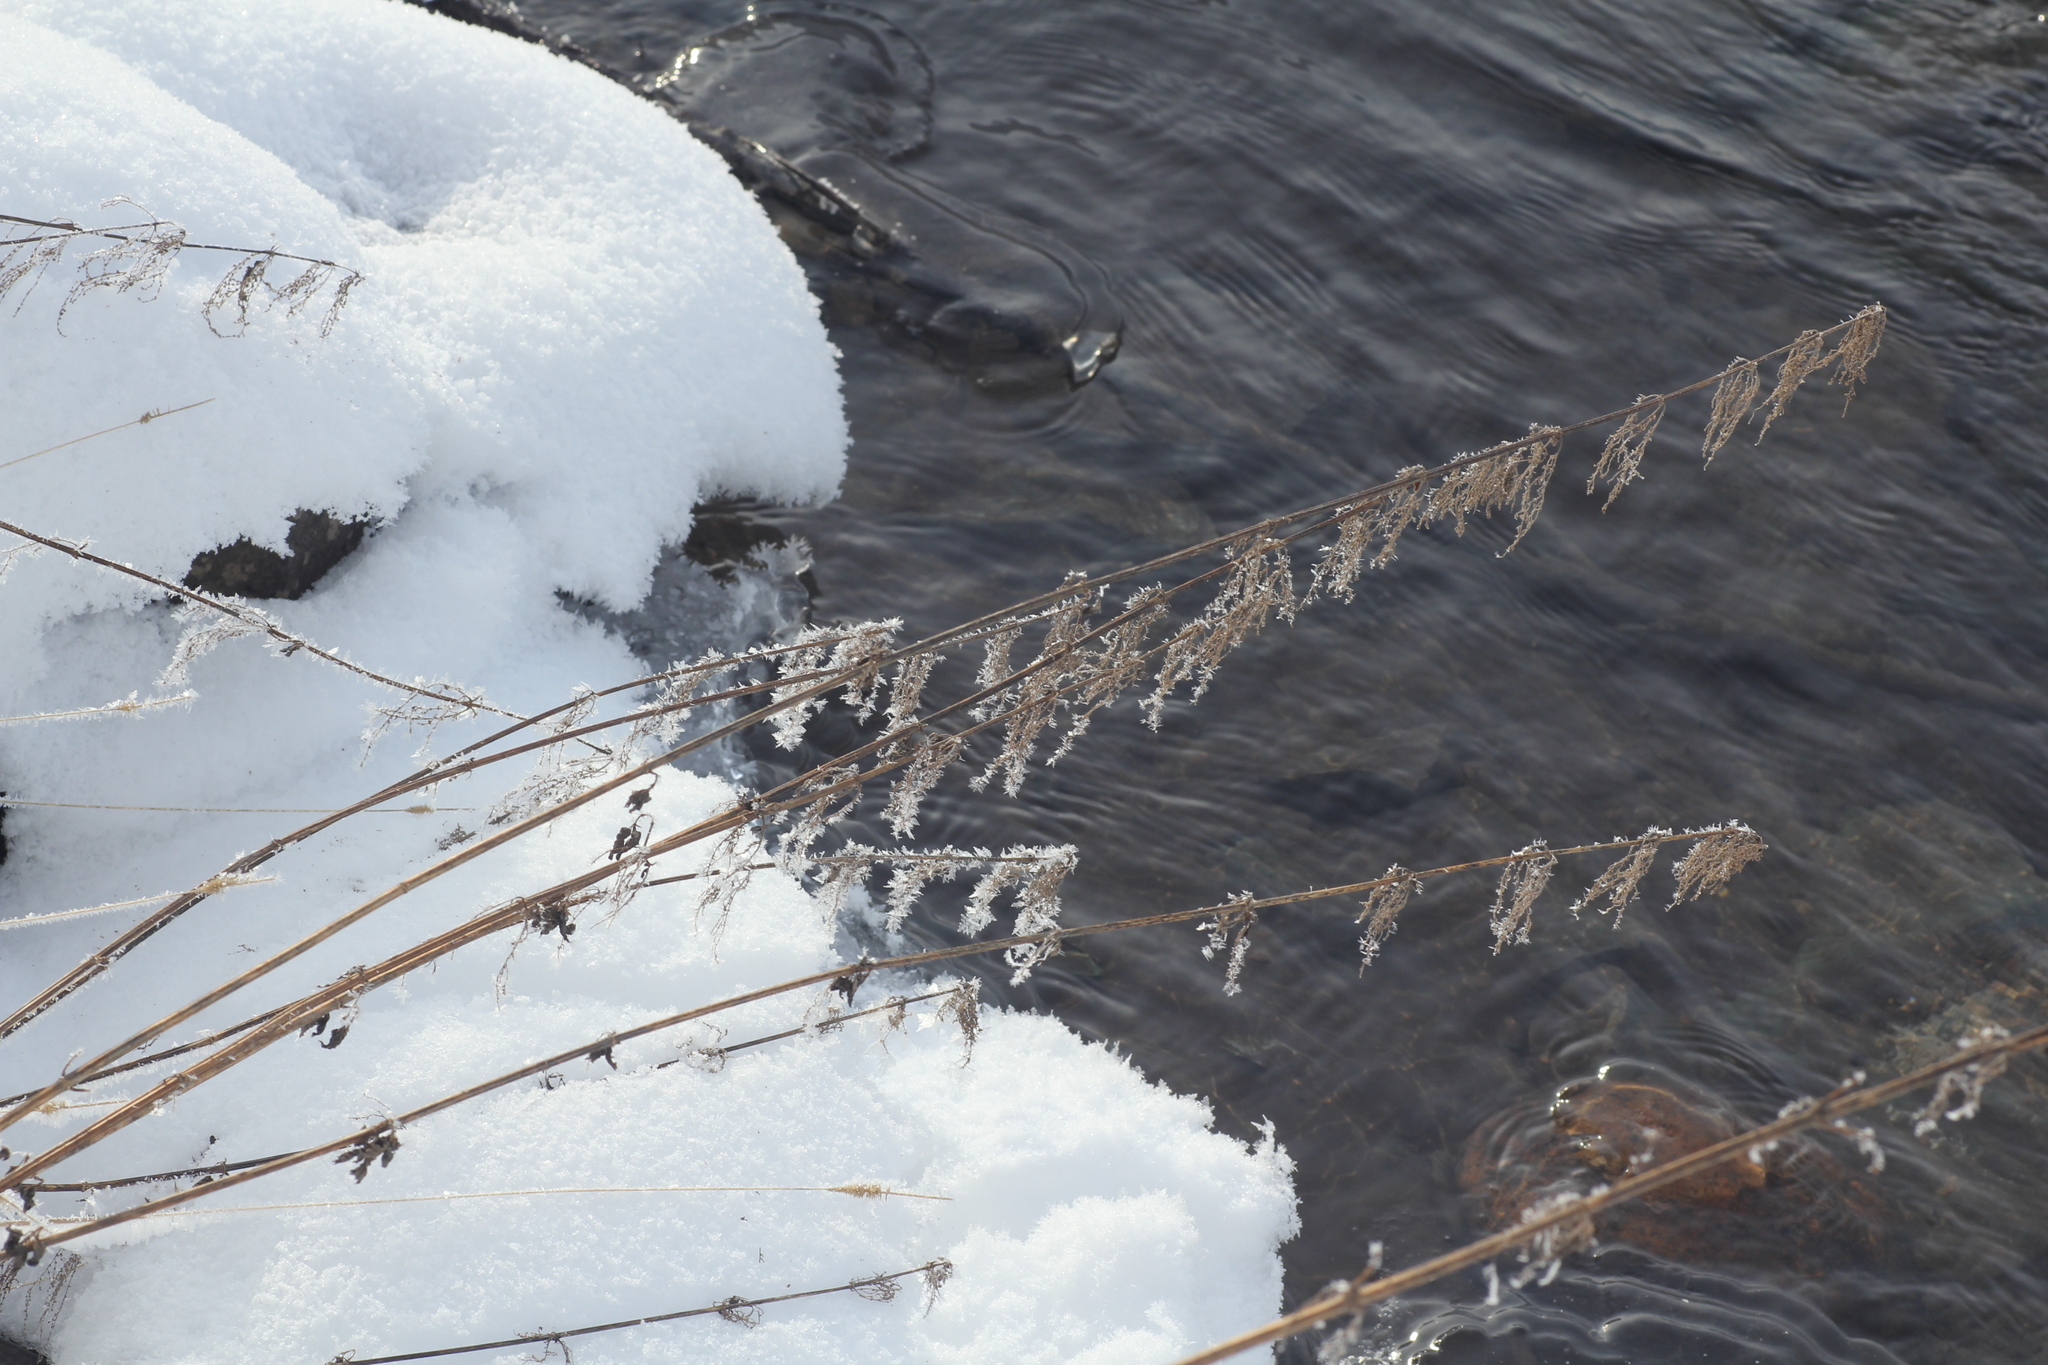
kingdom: Plantae
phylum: Tracheophyta
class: Magnoliopsida
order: Rosales
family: Urticaceae
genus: Urtica
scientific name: Urtica dioica
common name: Common nettle
